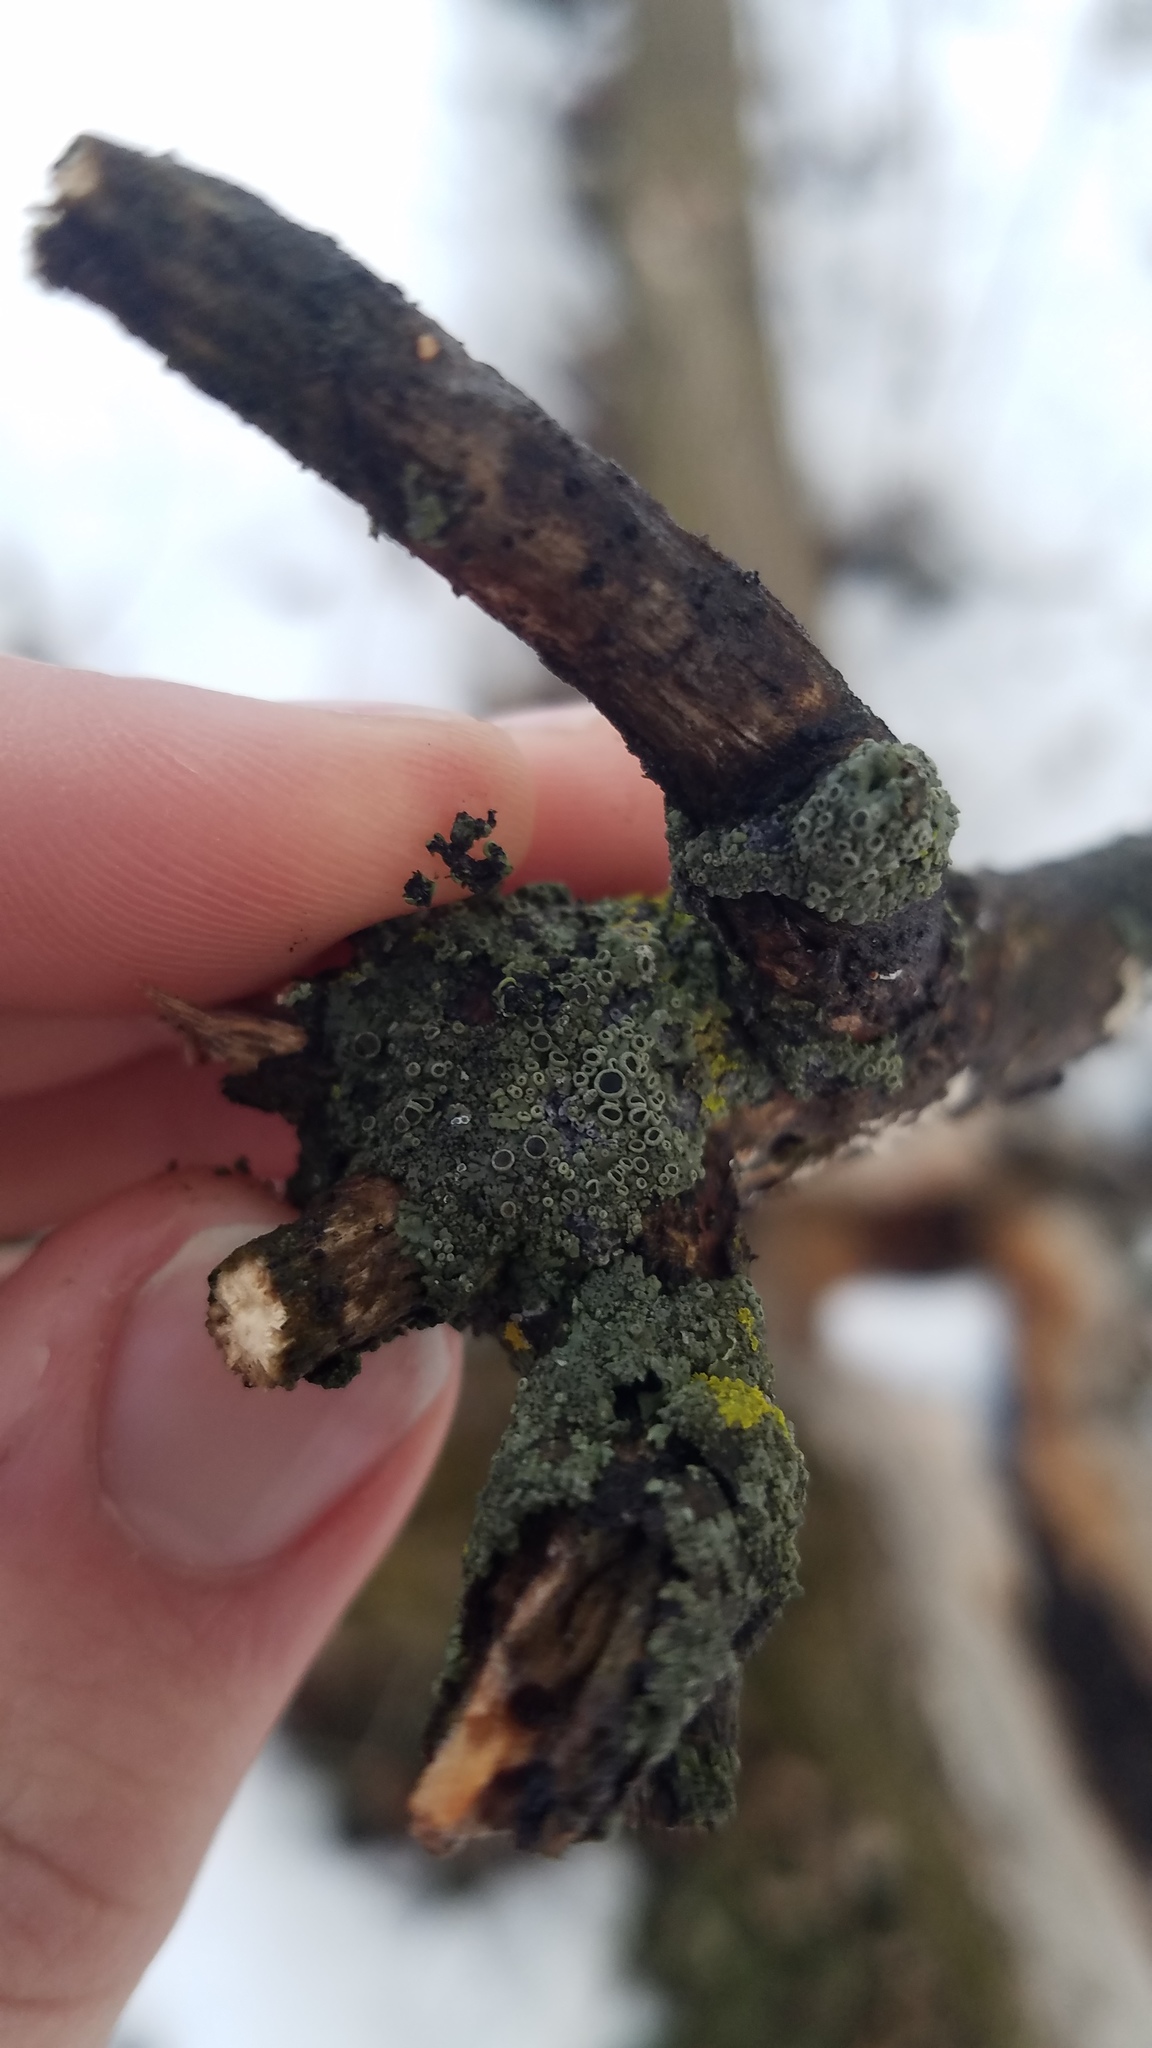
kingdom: Fungi
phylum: Ascomycota
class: Lecanoromycetes
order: Caliciales
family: Physciaceae
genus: Phaeophyscia
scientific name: Phaeophyscia ciliata
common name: Smooth shadow lichen
